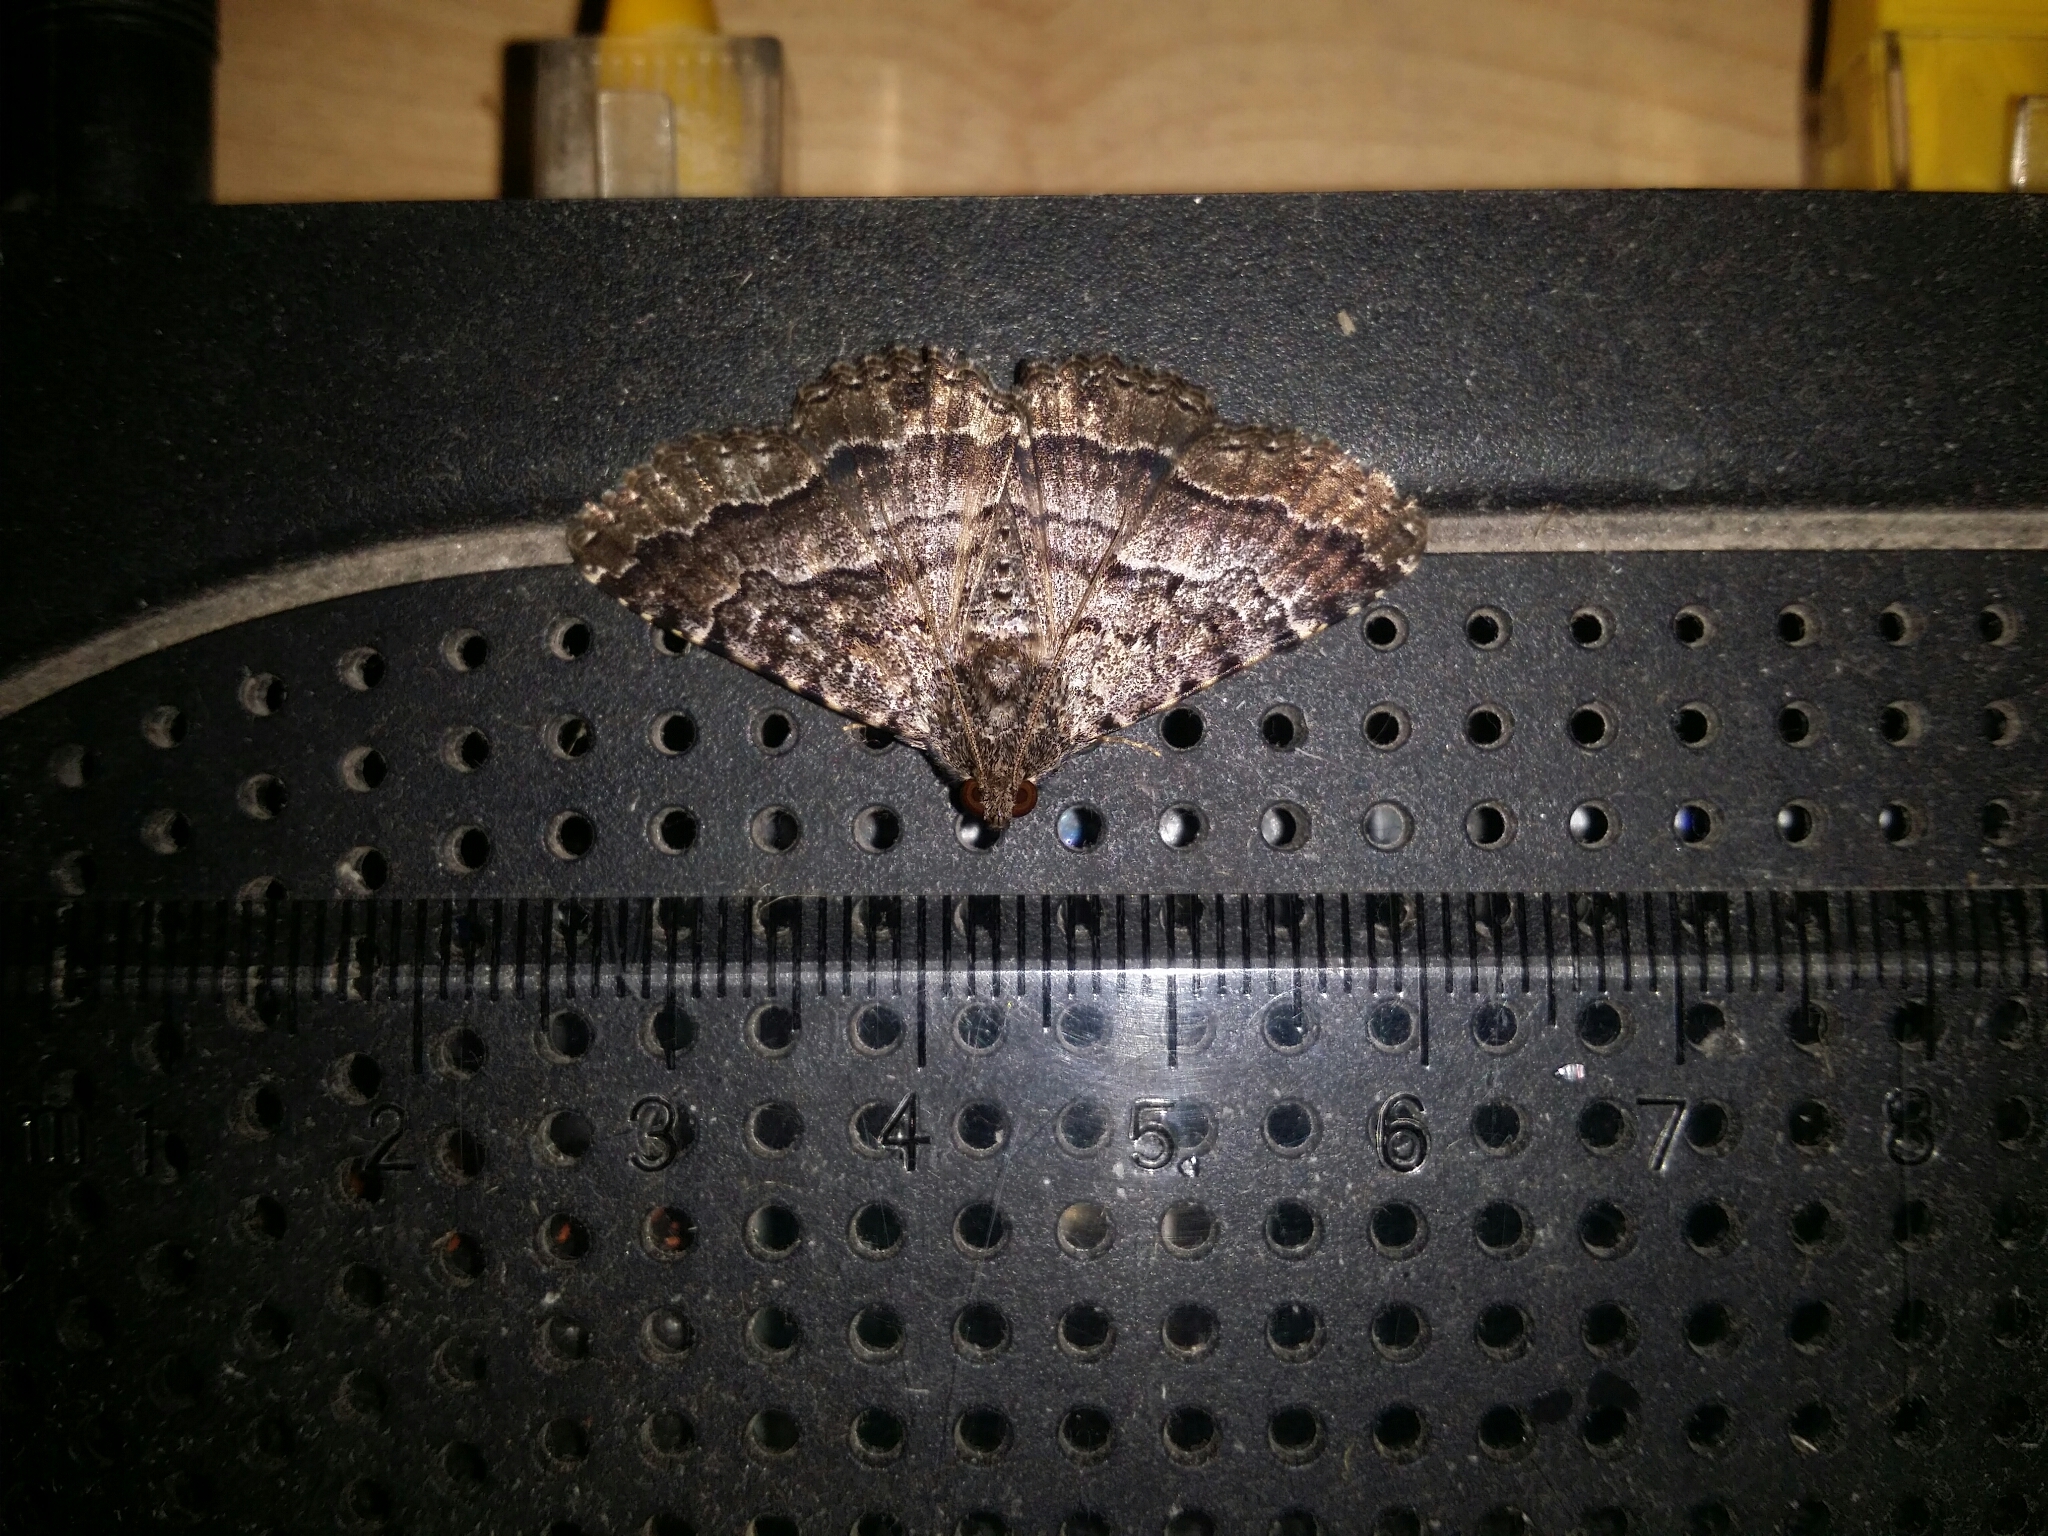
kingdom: Animalia
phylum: Arthropoda
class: Insecta
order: Lepidoptera
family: Erebidae
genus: Diatenes
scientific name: Diatenes aglossoides
